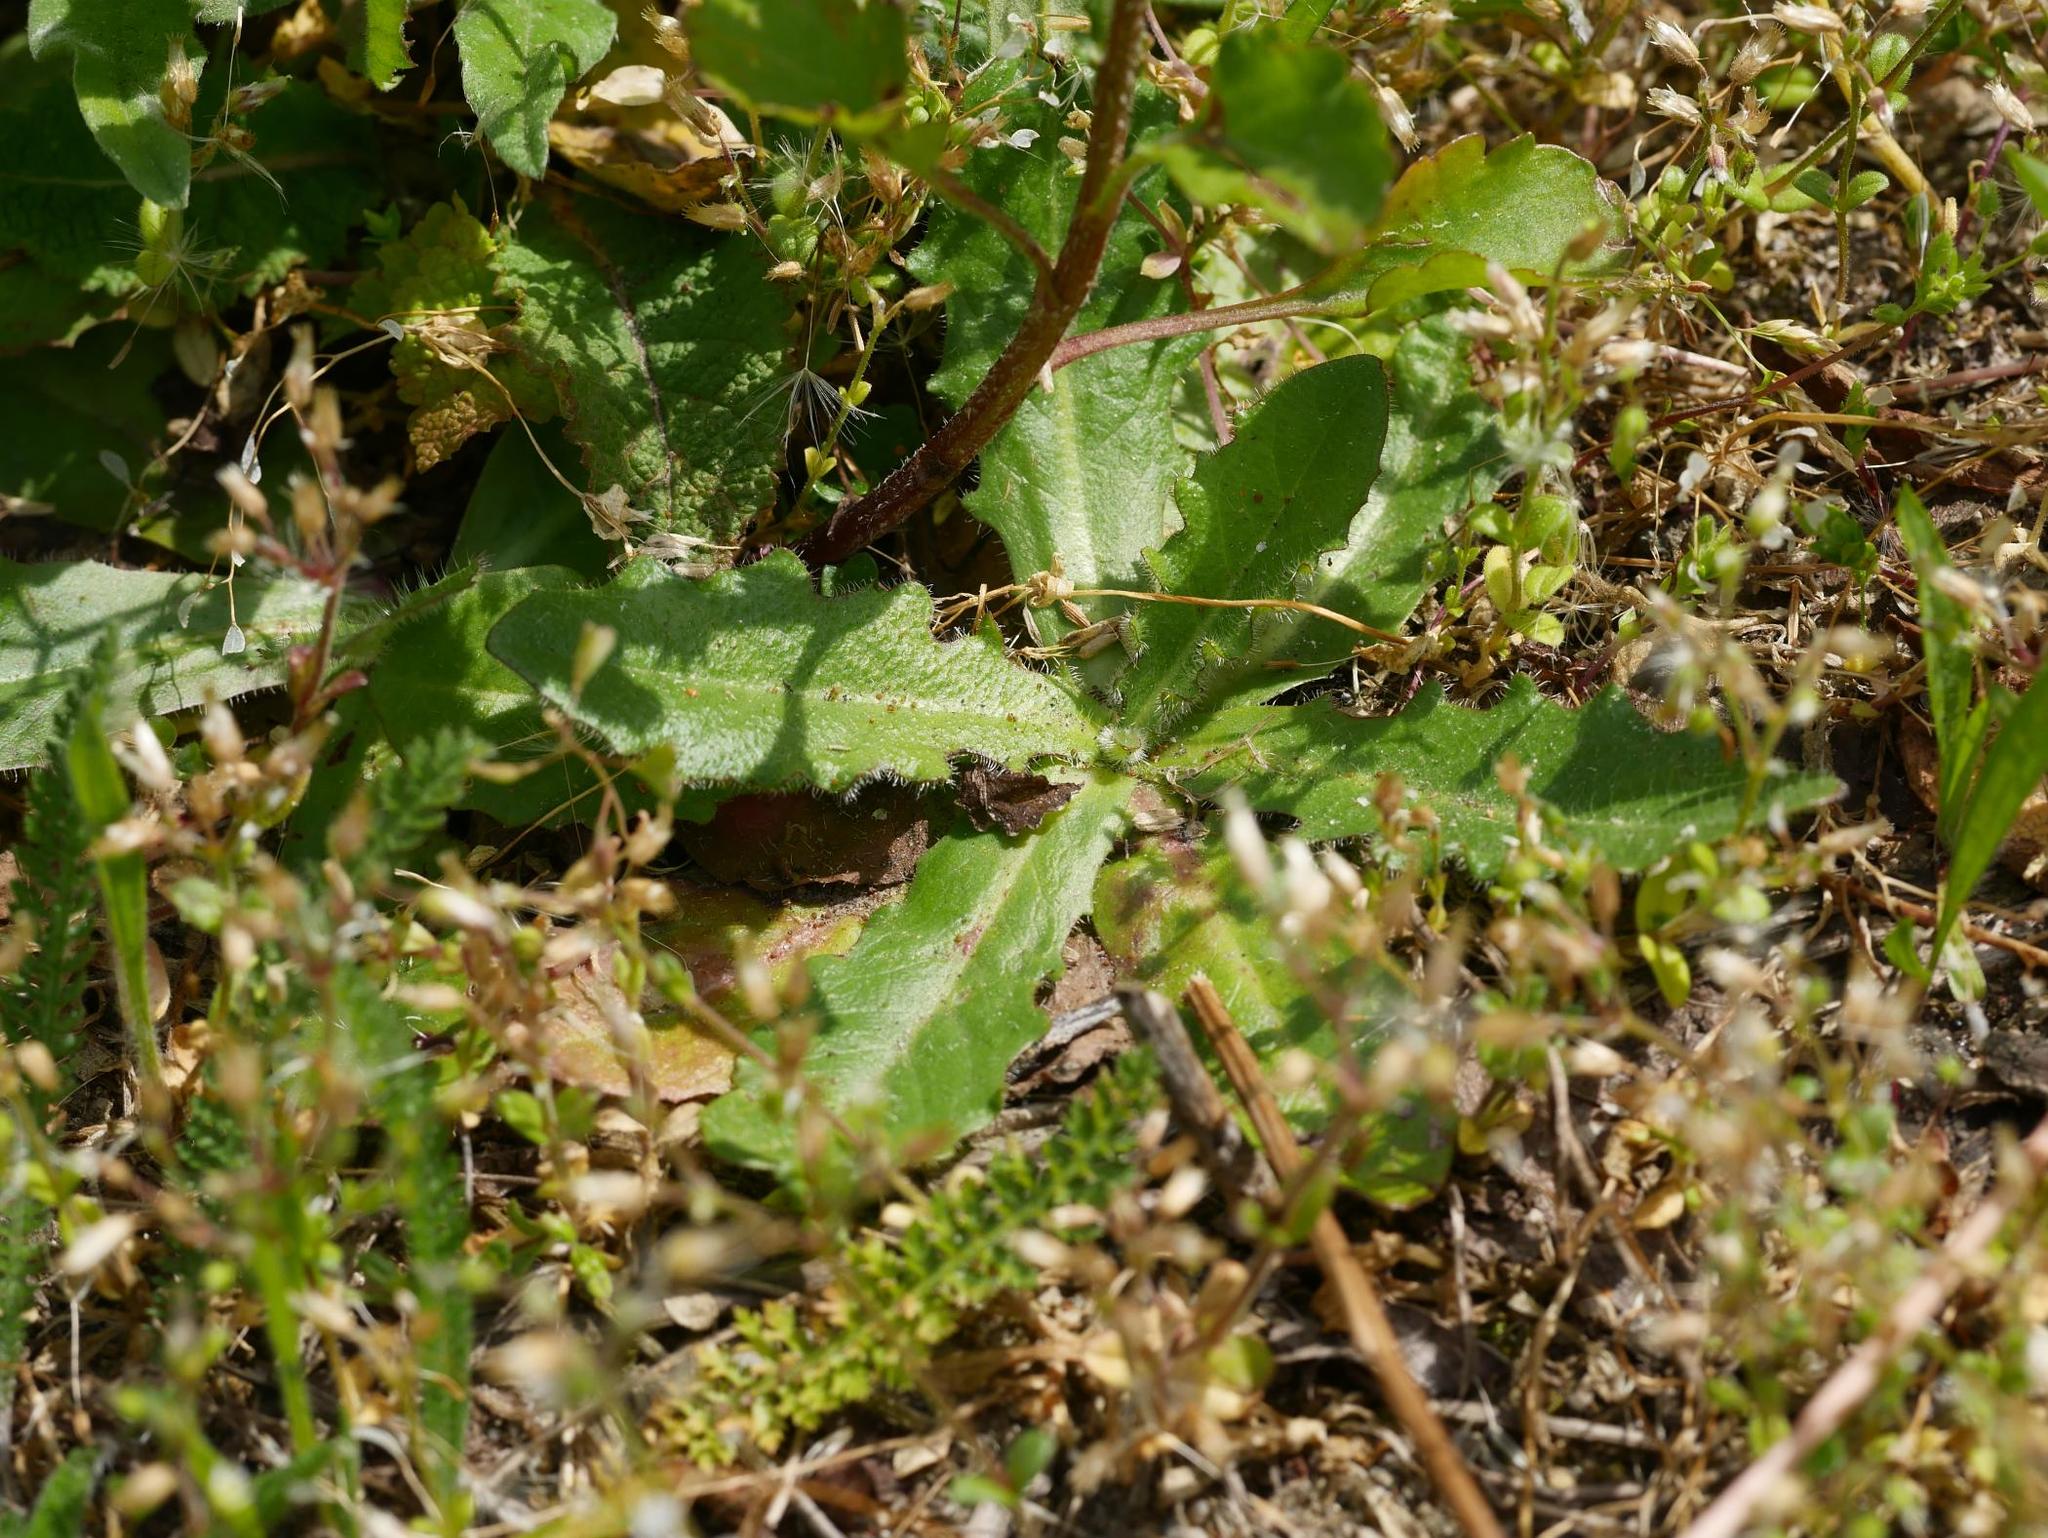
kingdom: Plantae
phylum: Tracheophyta
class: Magnoliopsida
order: Asterales
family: Asteraceae
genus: Hypochaeris
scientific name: Hypochaeris radicata
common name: Flatweed
